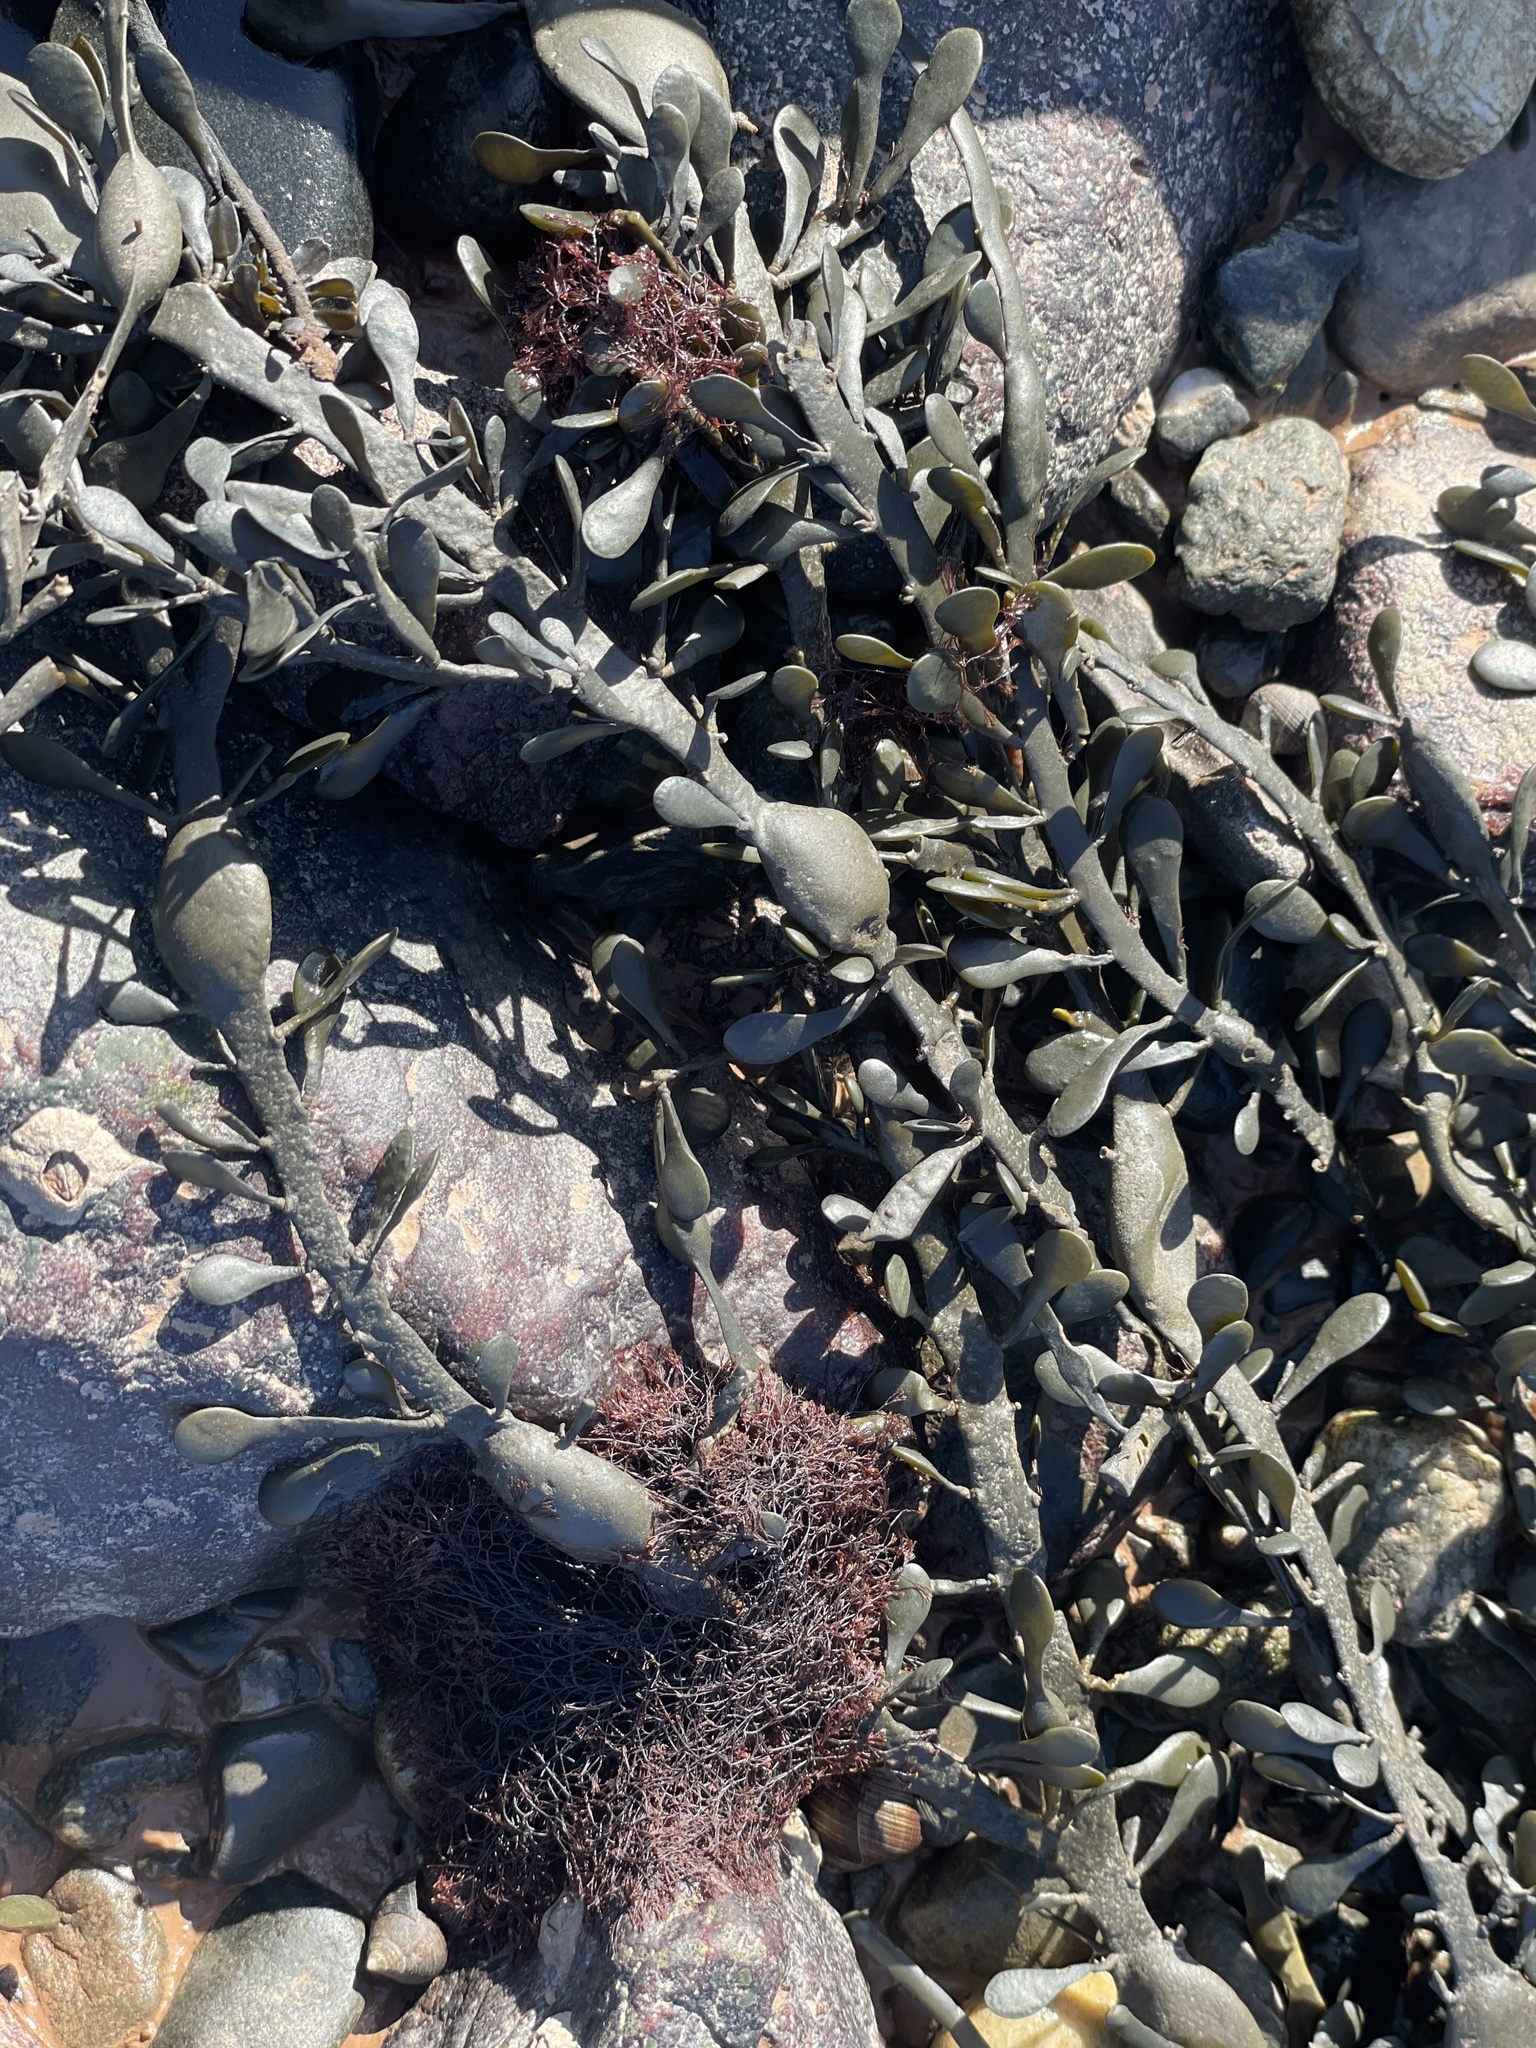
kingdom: Plantae
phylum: Rhodophyta
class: Florideophyceae
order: Ceramiales
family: Rhodomelaceae
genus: Vertebrata
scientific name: Vertebrata lanosa
